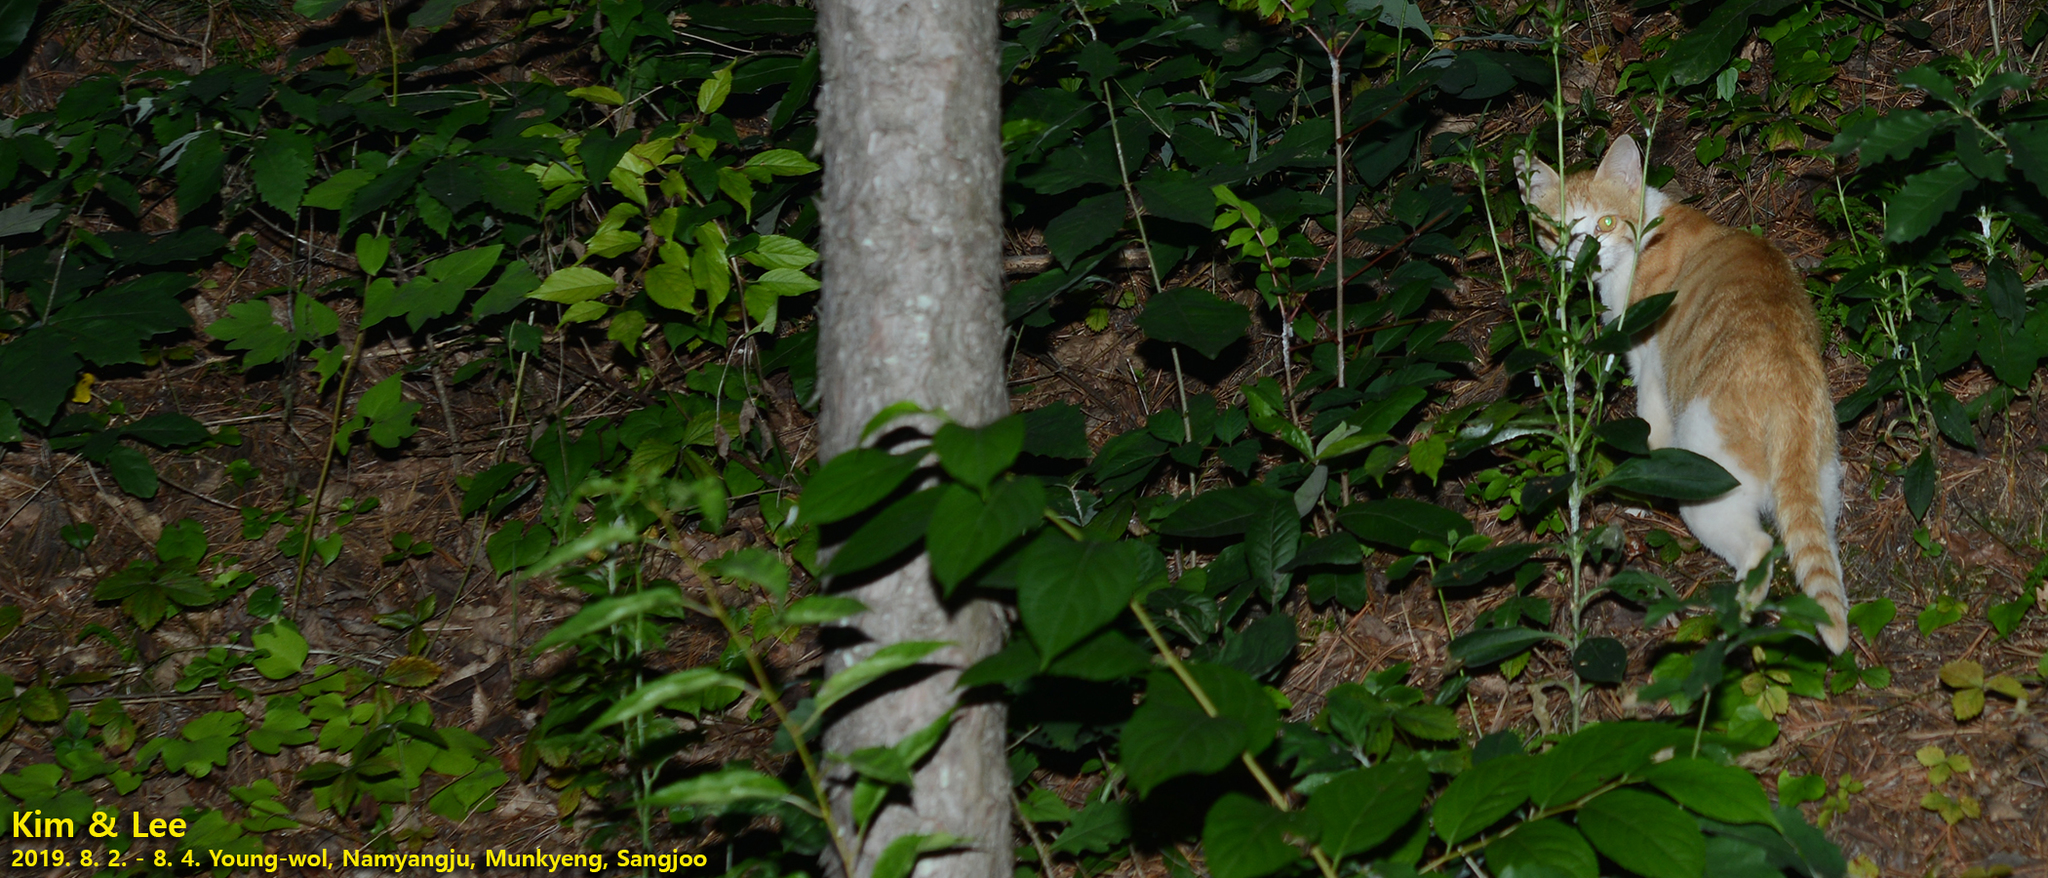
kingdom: Animalia
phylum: Chordata
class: Mammalia
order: Carnivora
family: Felidae
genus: Felis
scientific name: Felis catus
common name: Domestic cat
